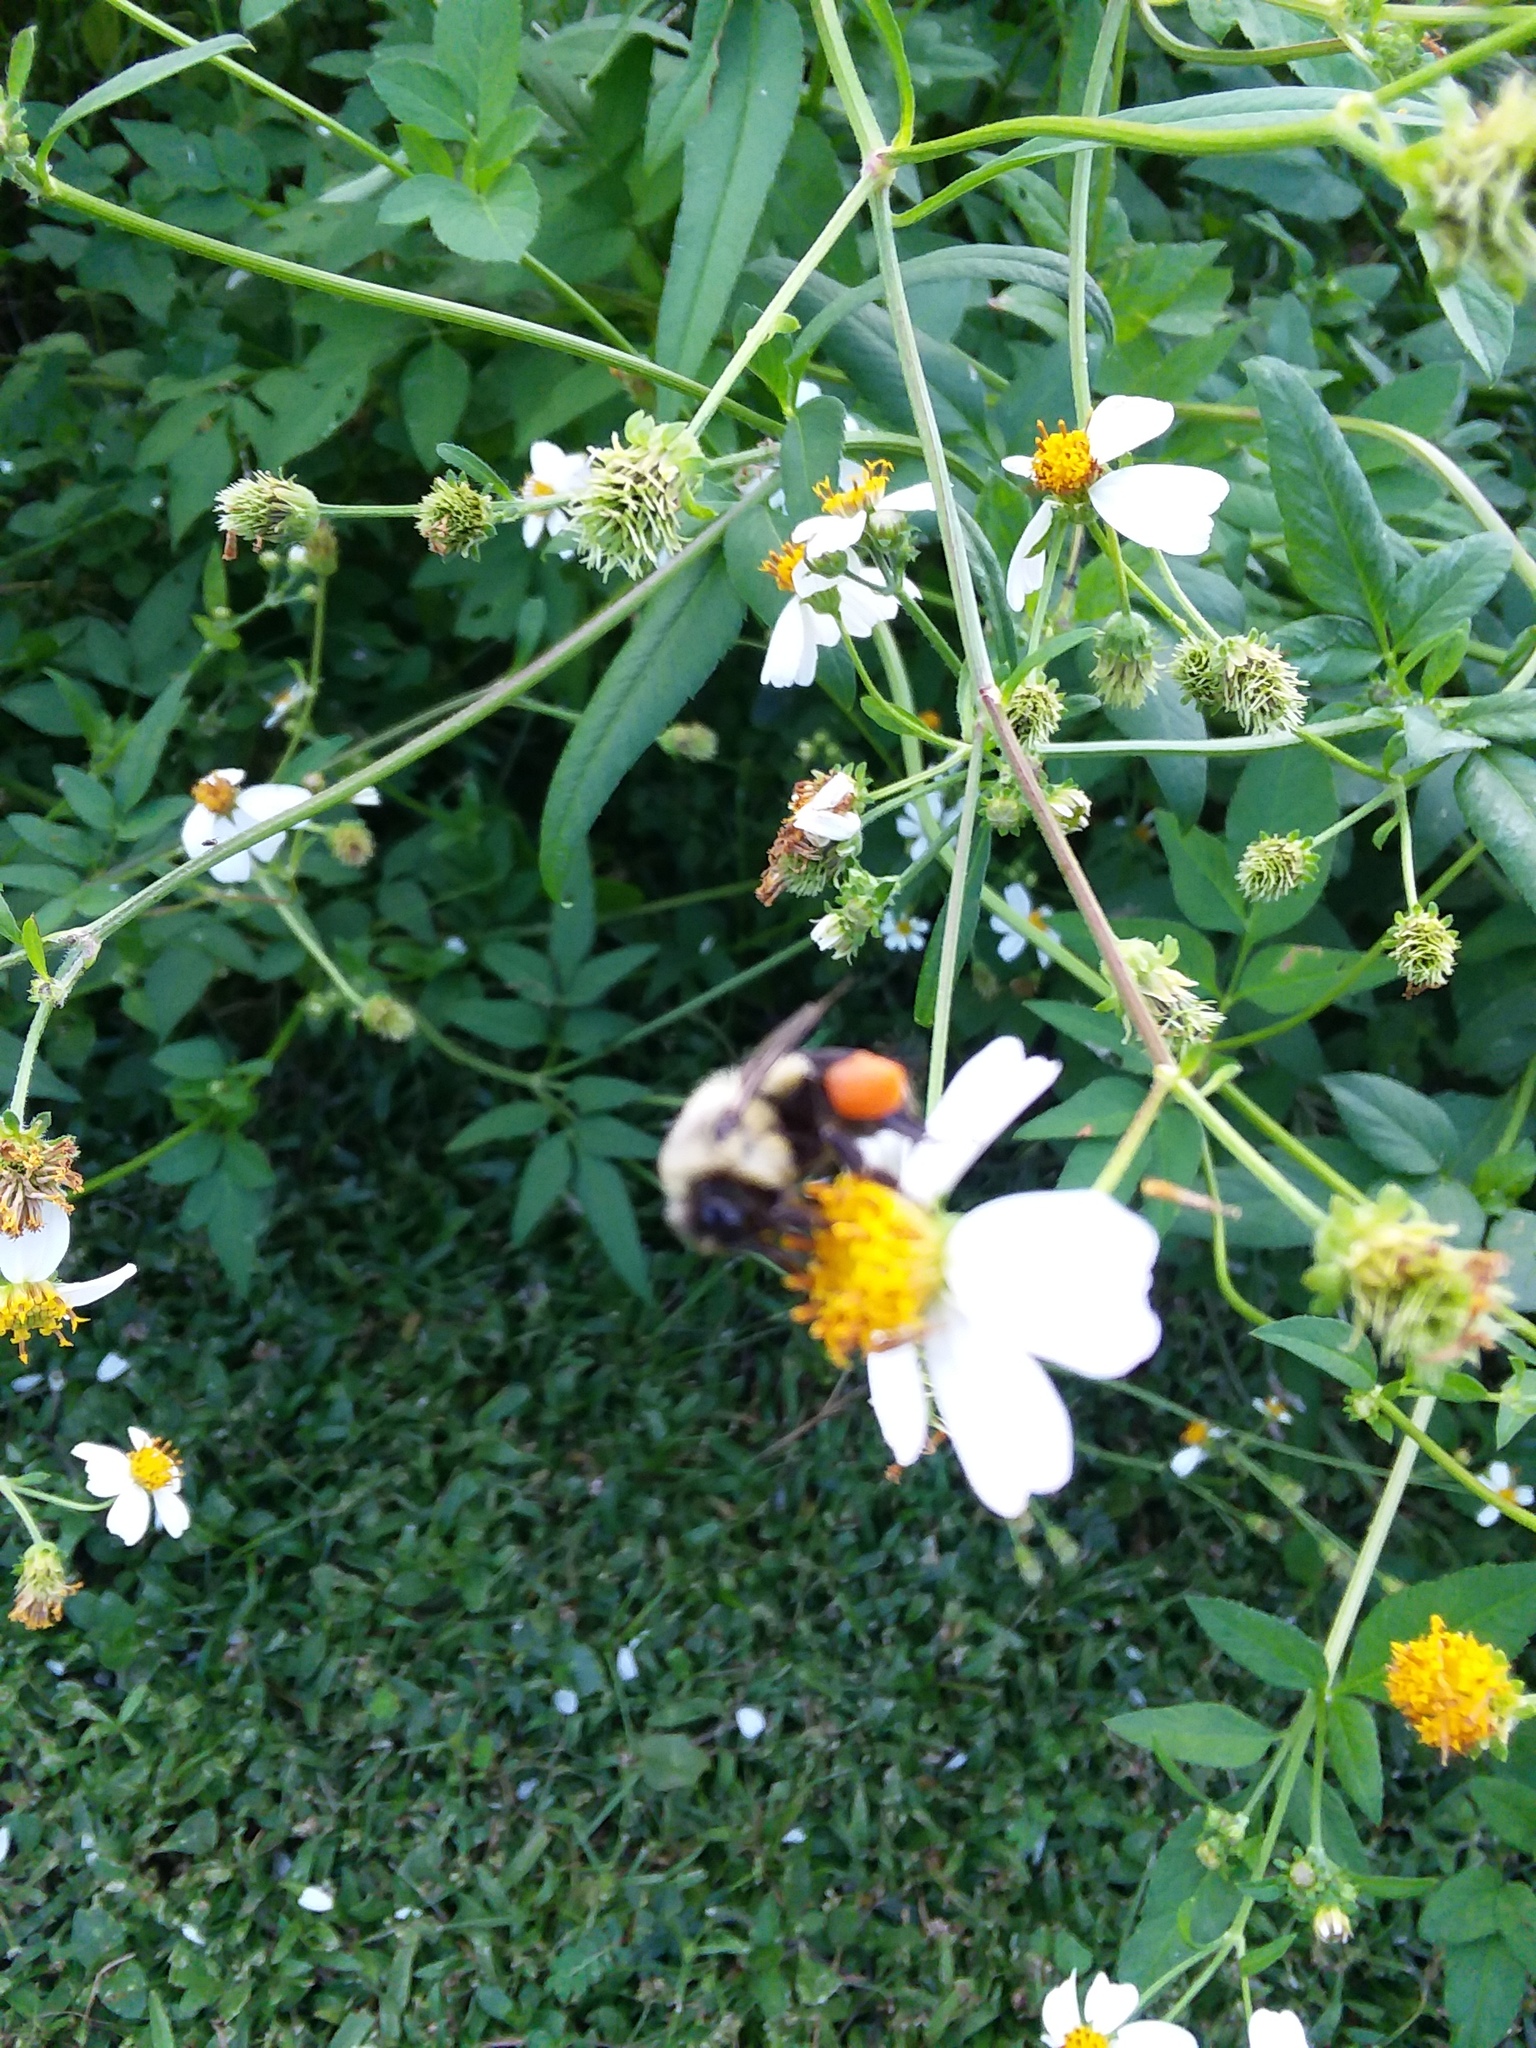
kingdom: Animalia
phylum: Arthropoda
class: Insecta
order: Hymenoptera
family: Apidae
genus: Bombus
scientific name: Bombus impatiens
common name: Common eastern bumble bee
